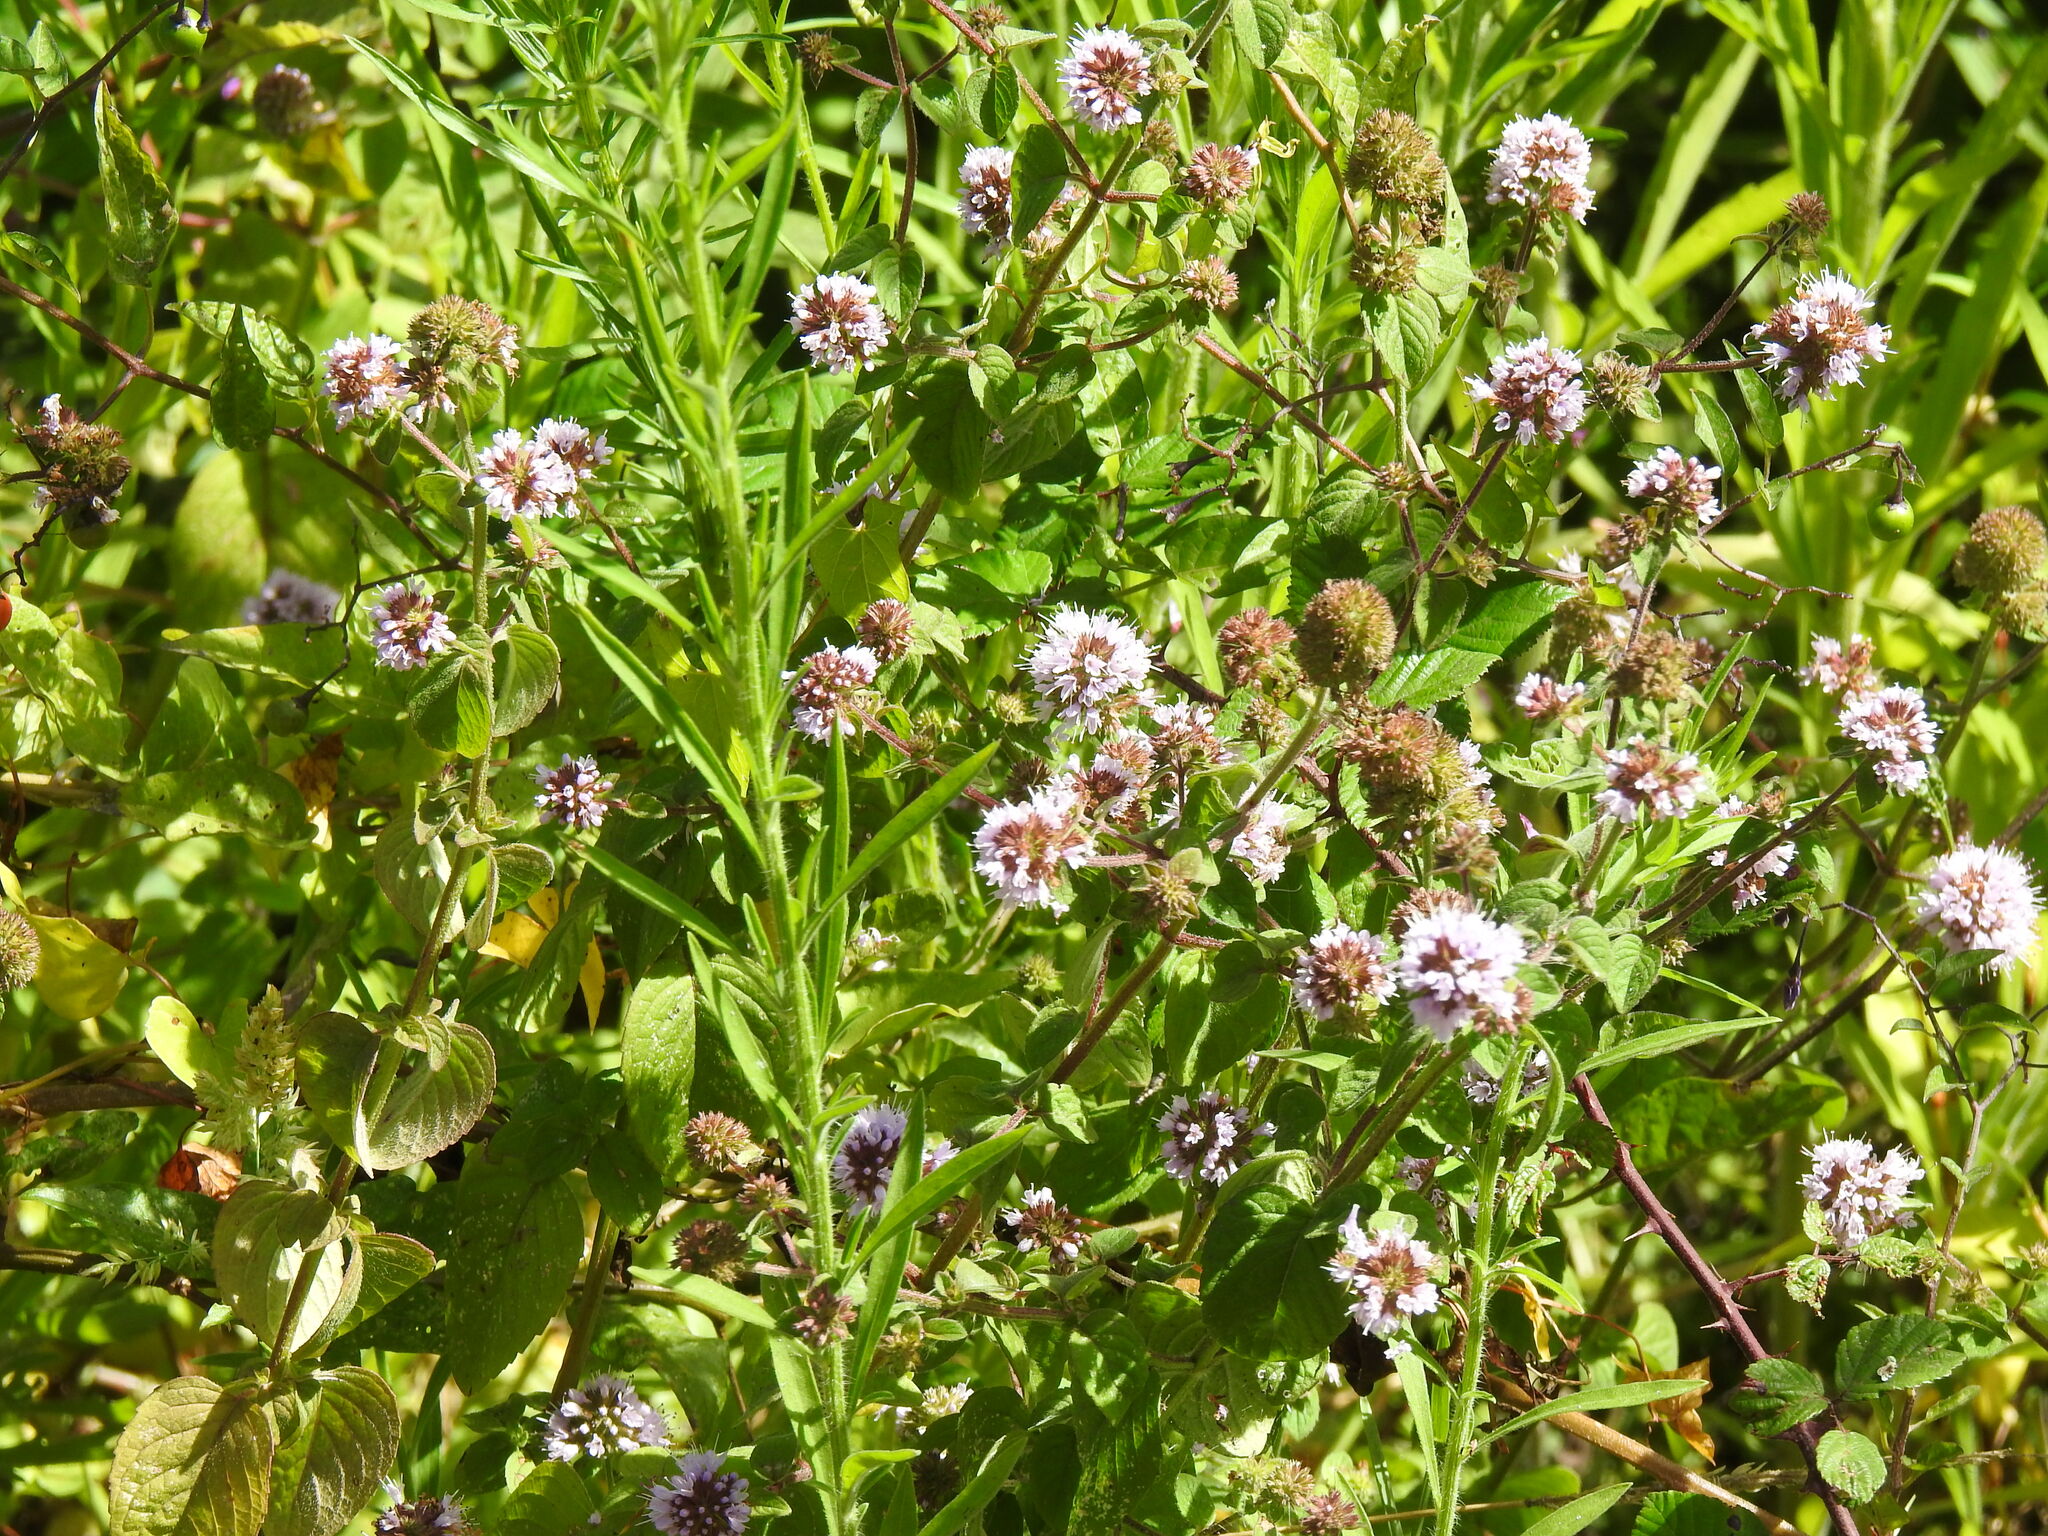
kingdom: Plantae
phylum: Tracheophyta
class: Magnoliopsida
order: Lamiales
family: Lamiaceae
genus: Mentha
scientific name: Mentha aquatica
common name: Water mint
